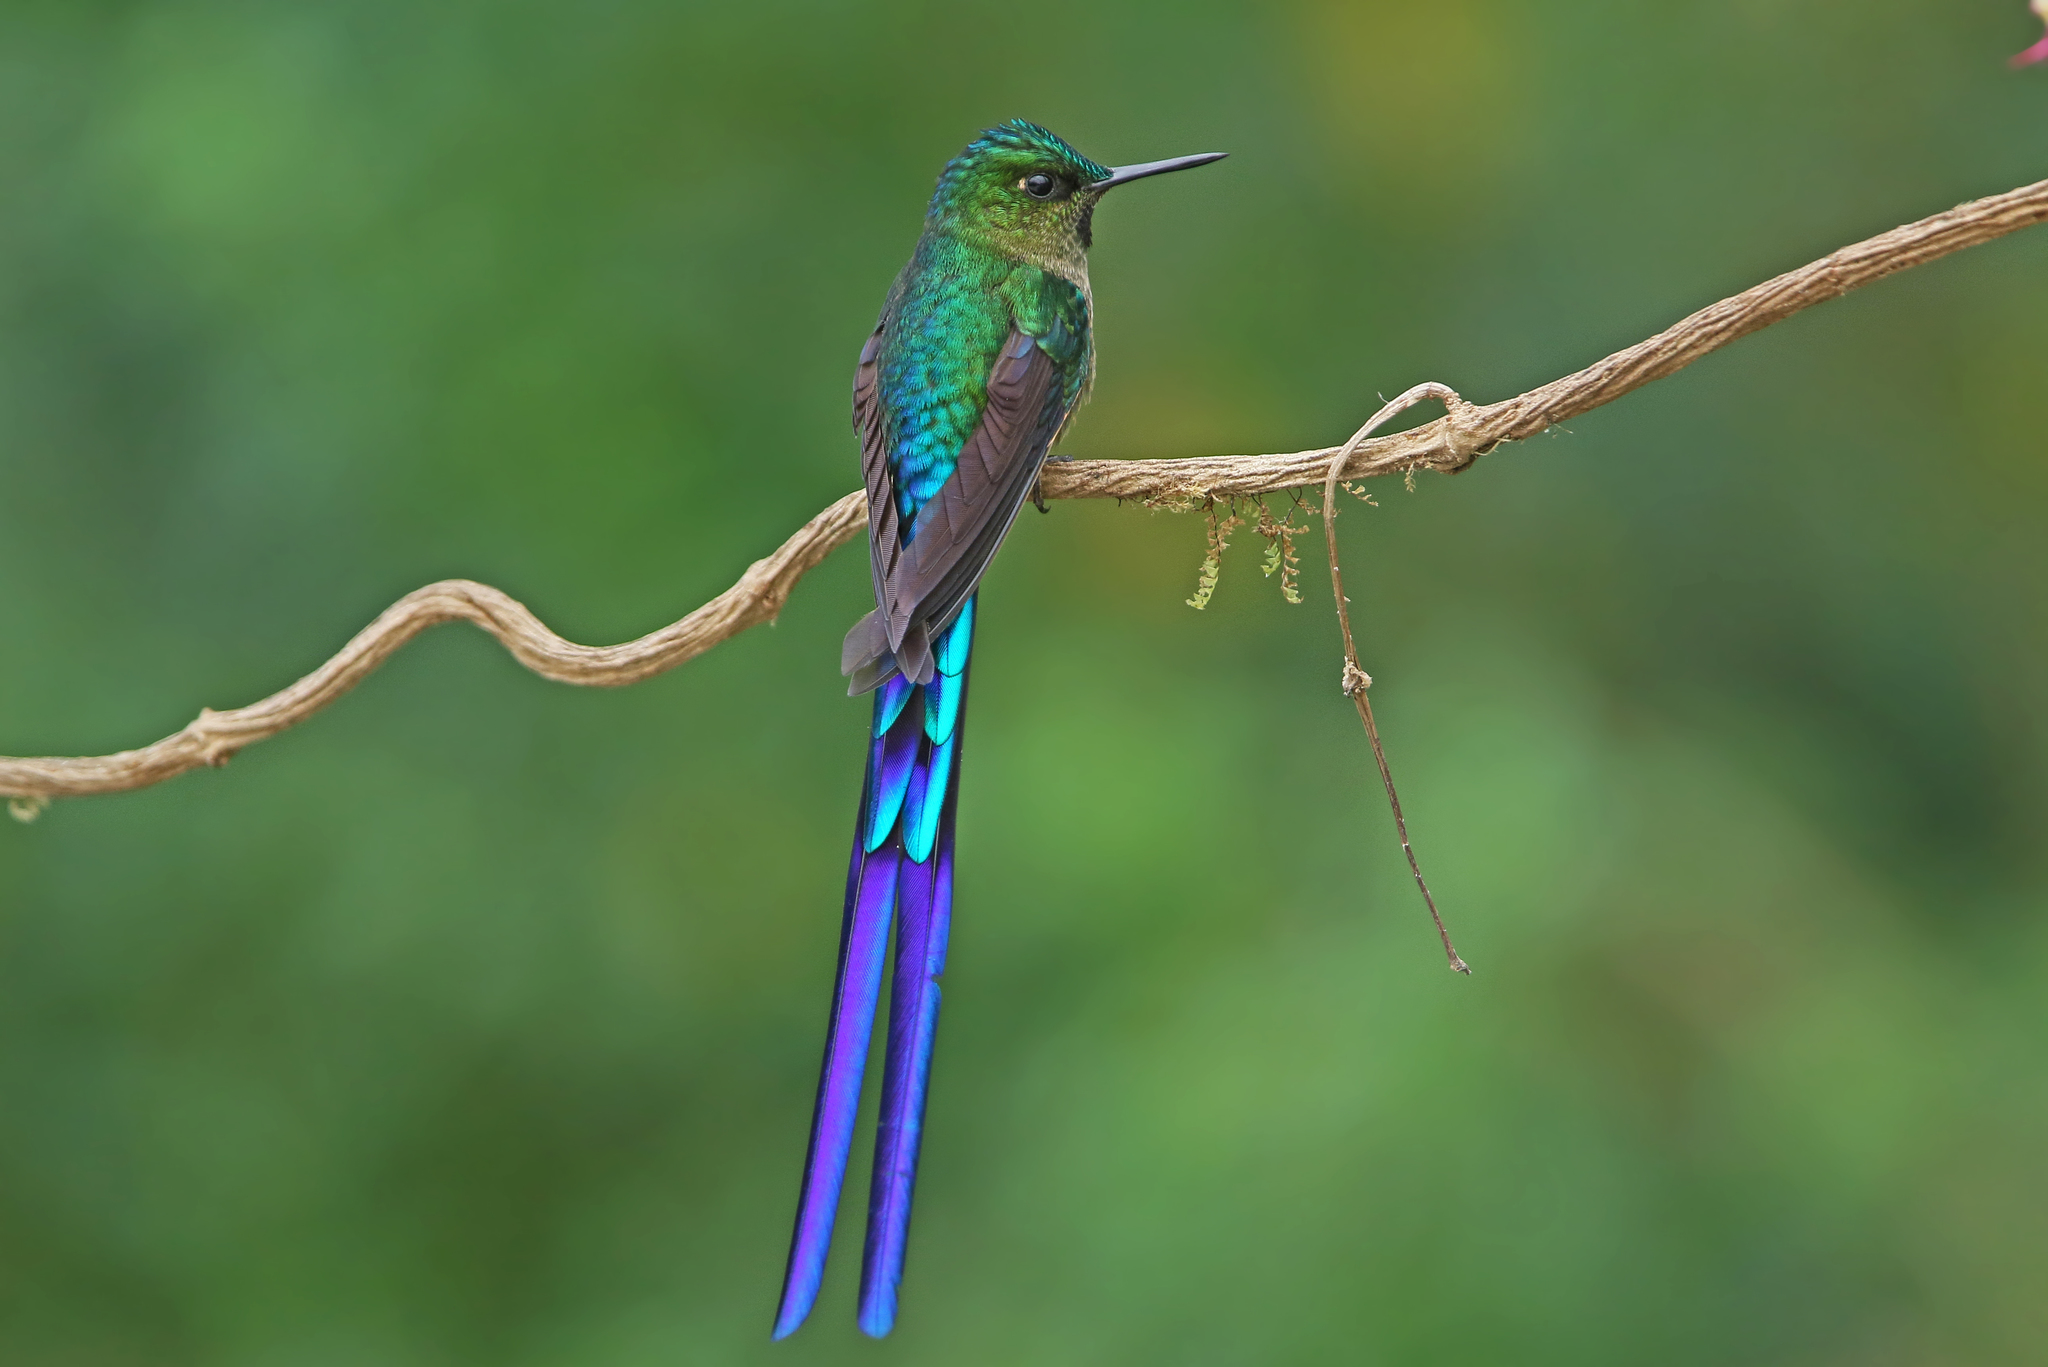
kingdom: Animalia
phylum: Chordata
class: Aves
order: Apodiformes
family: Trochilidae
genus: Aglaiocercus
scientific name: Aglaiocercus coelestis
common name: Violet-tailed sylph
